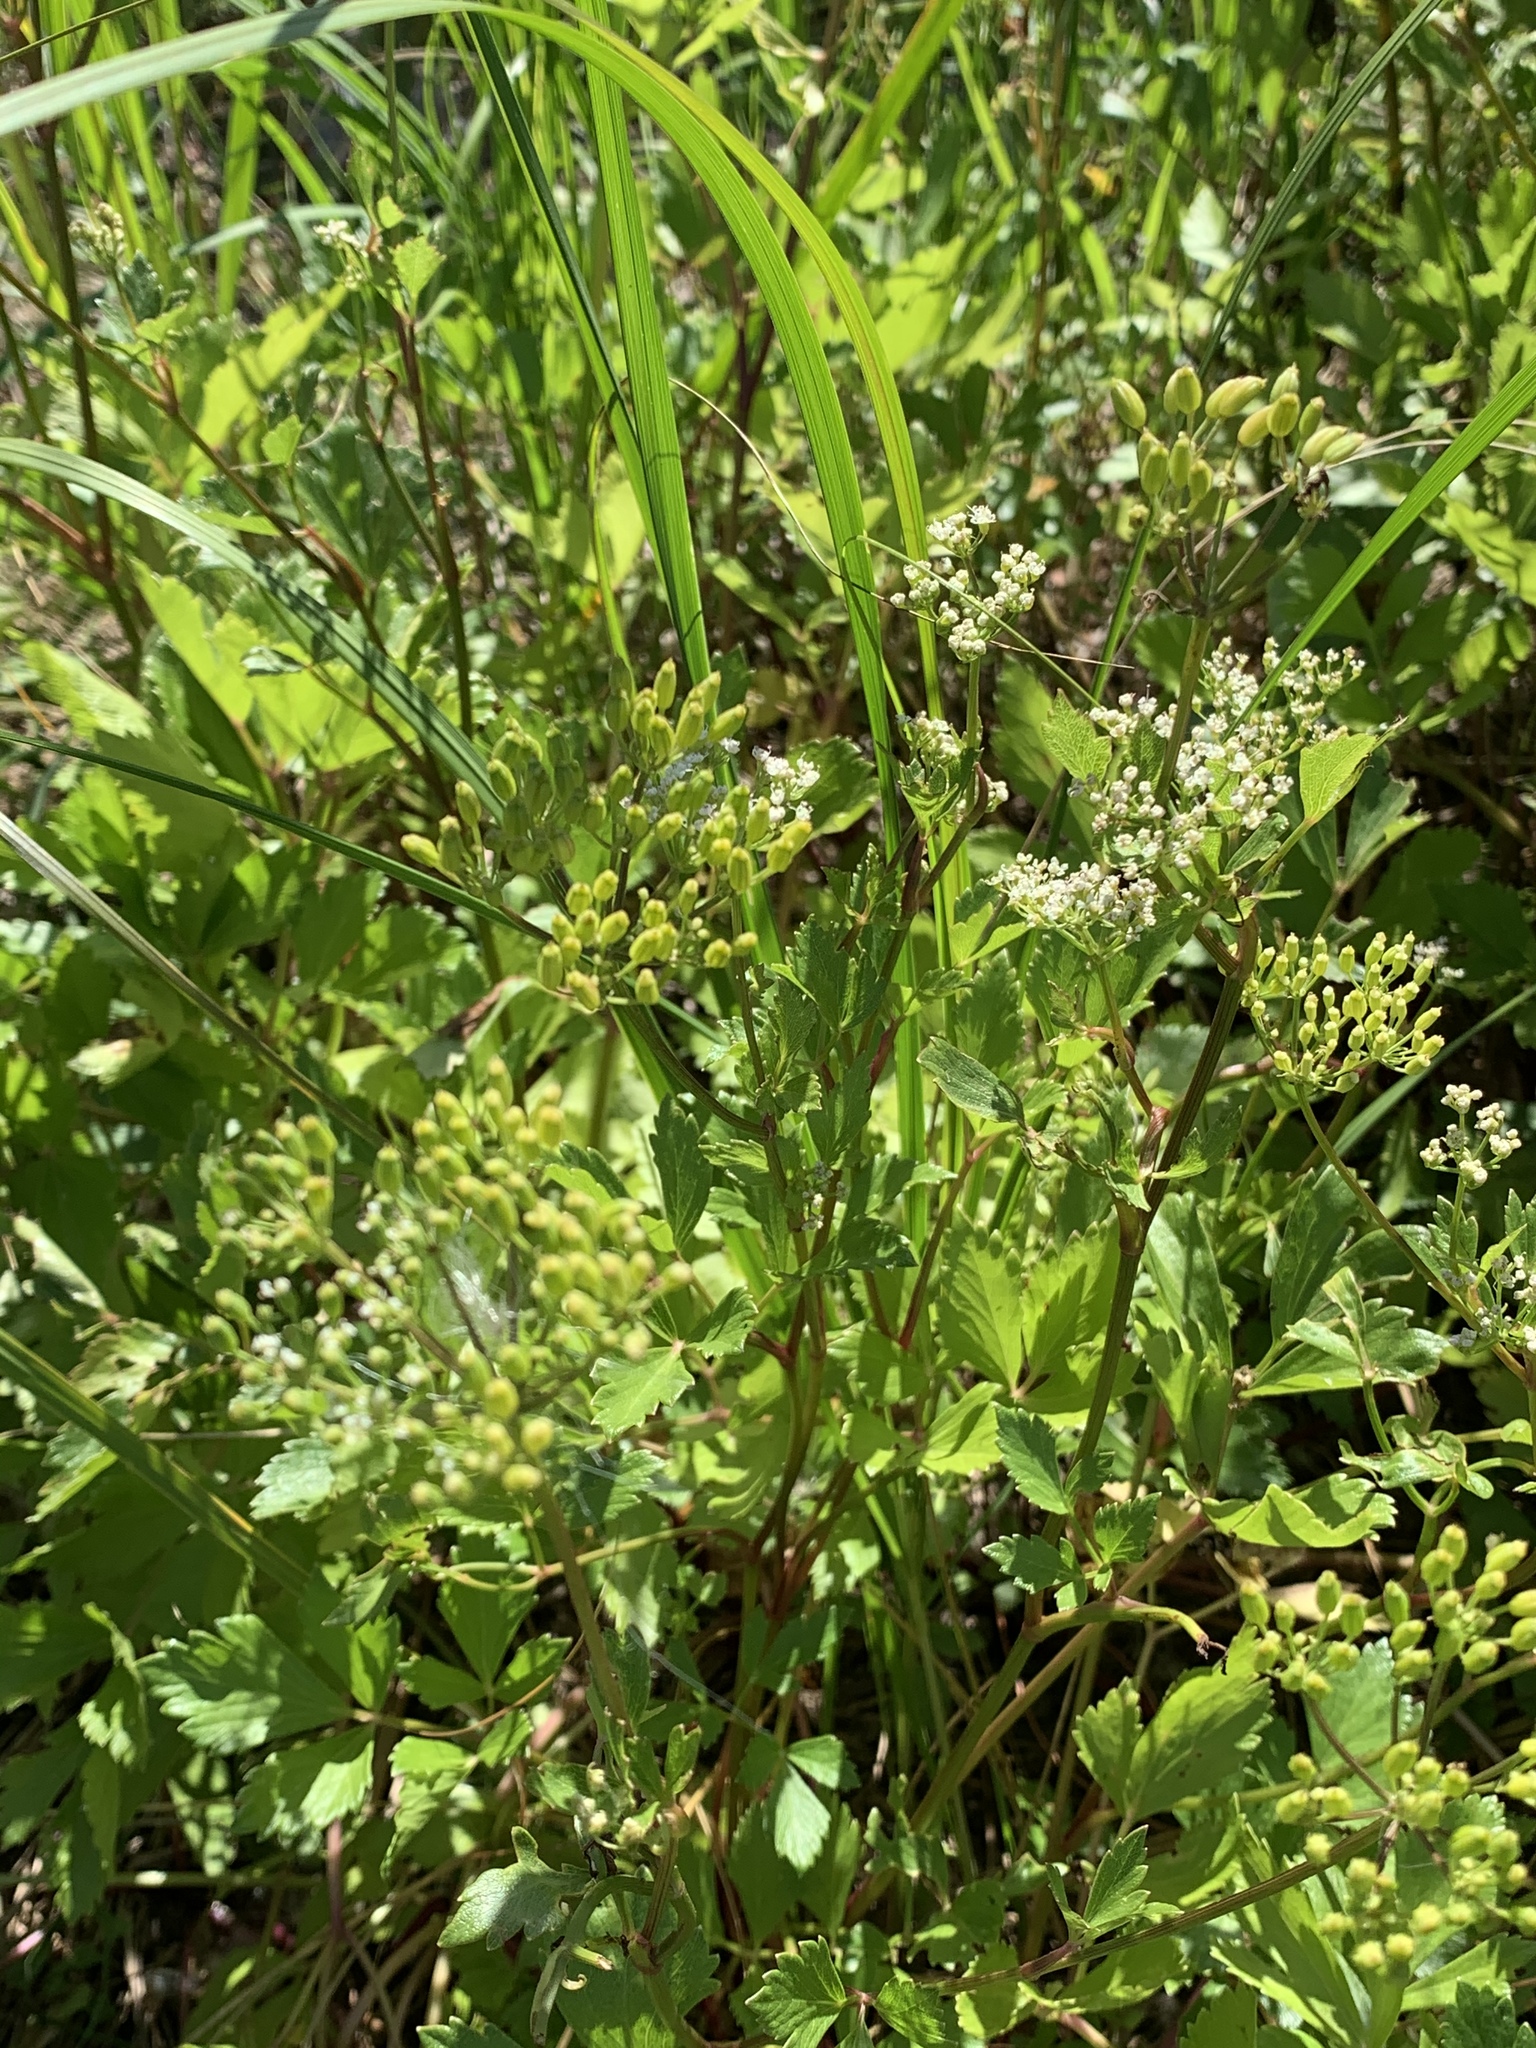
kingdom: Plantae
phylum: Tracheophyta
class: Magnoliopsida
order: Apiales
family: Apiaceae
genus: Ligusticum
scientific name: Ligusticum scothicum
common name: Beach lovage
